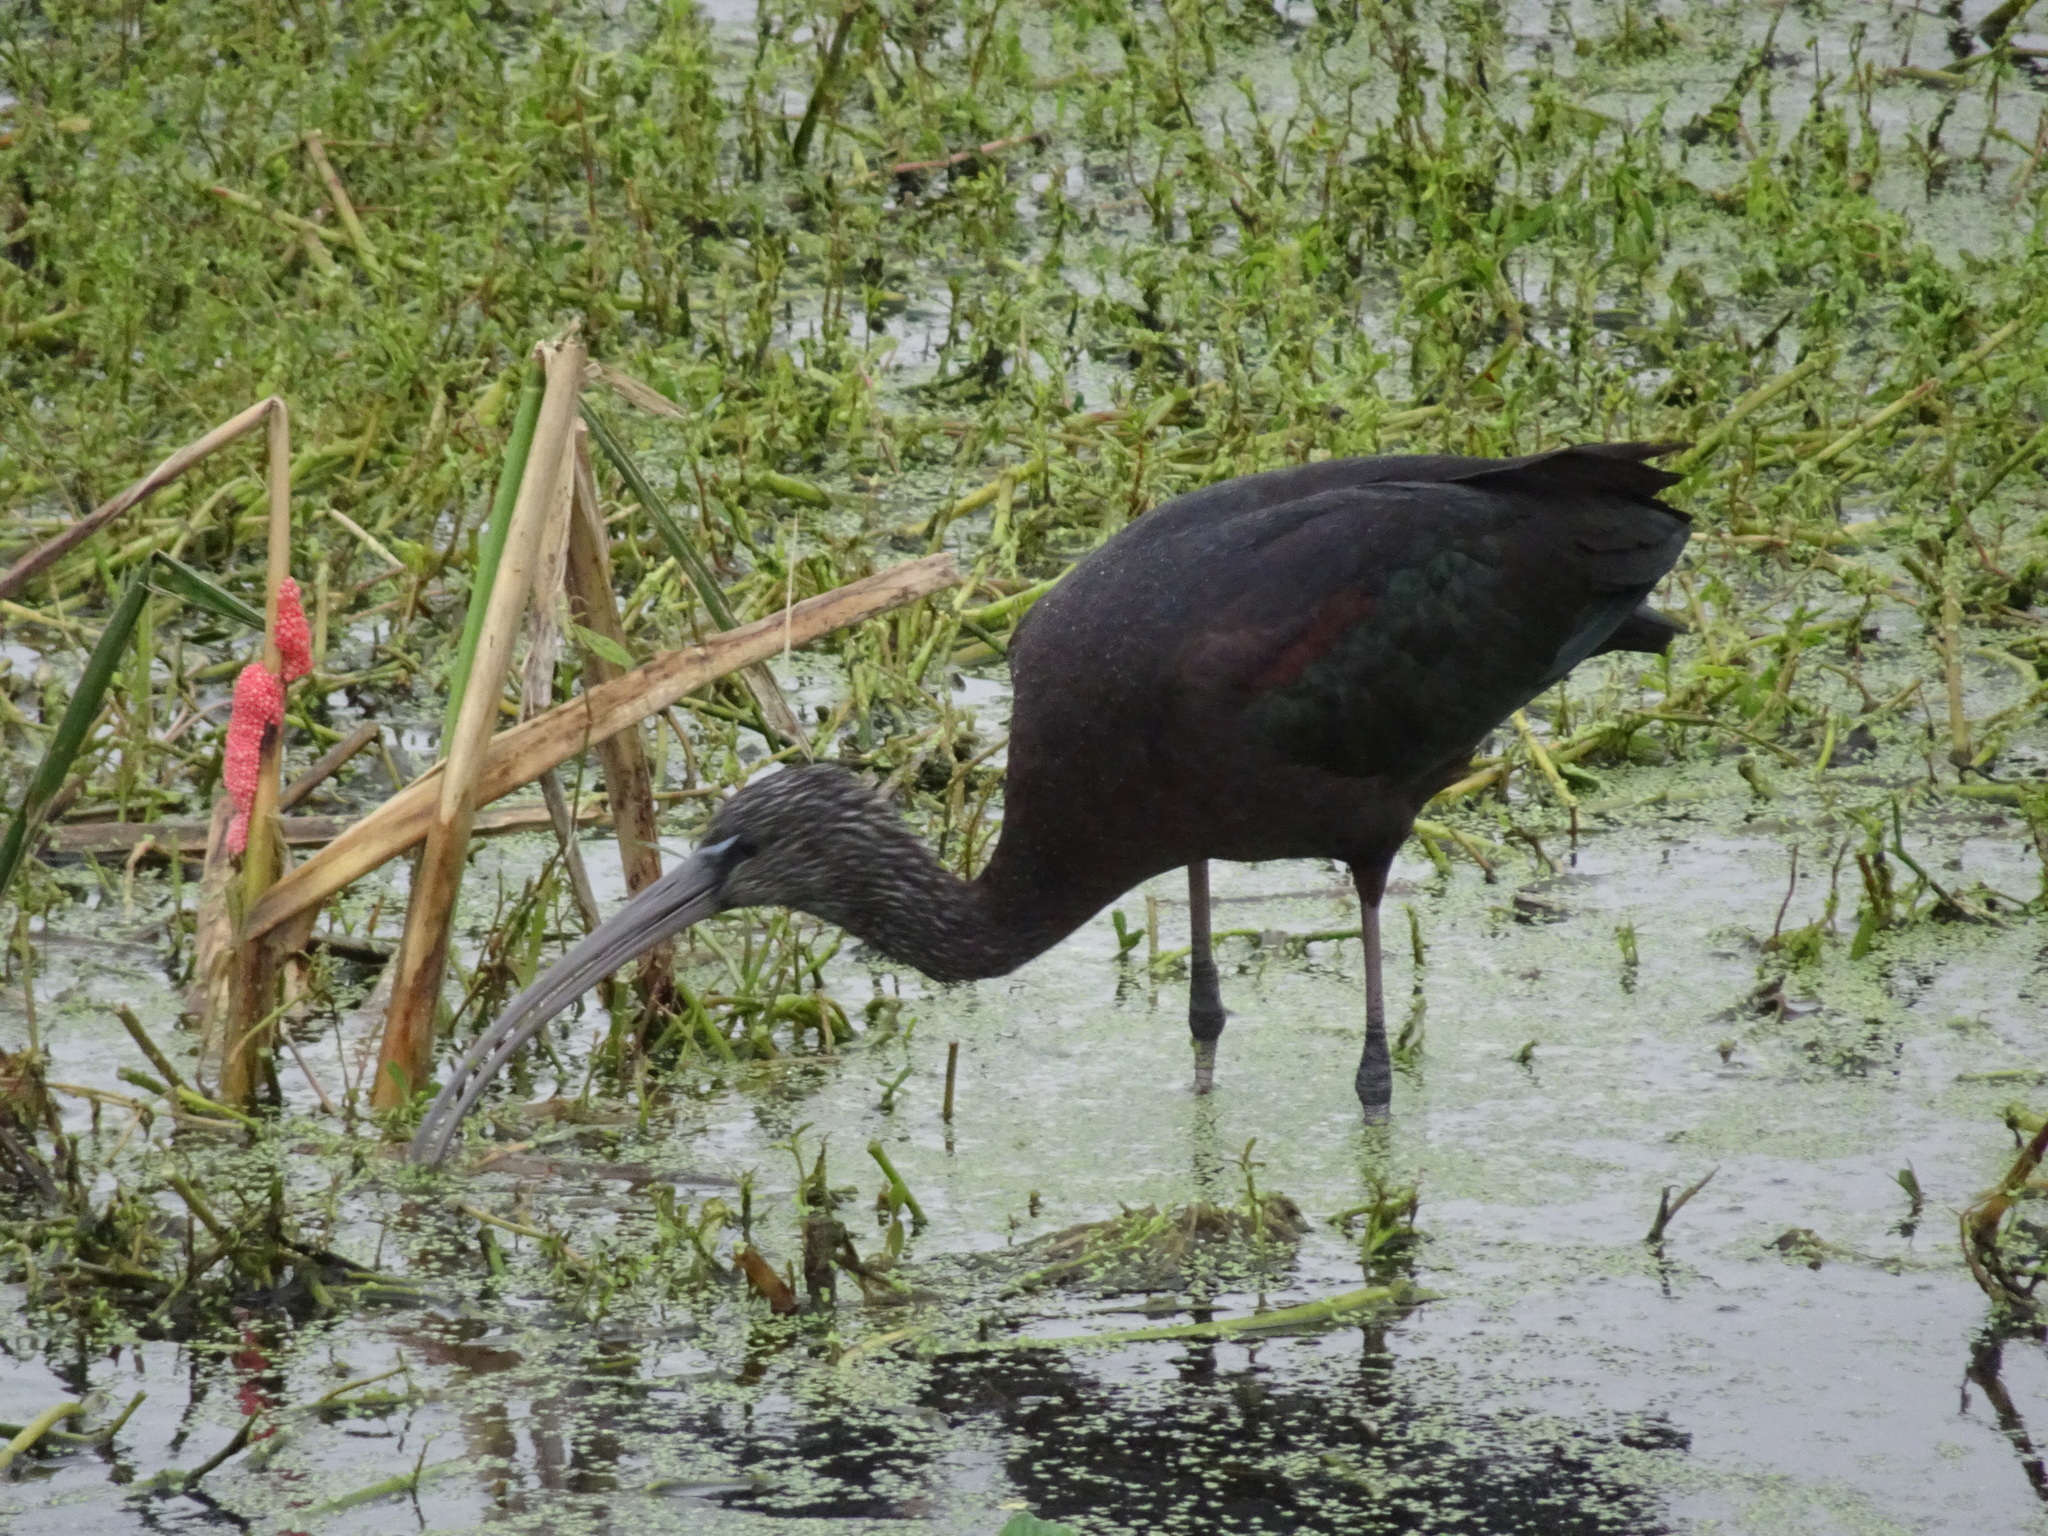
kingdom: Animalia
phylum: Chordata
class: Aves
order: Pelecaniformes
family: Threskiornithidae
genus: Plegadis
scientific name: Plegadis falcinellus
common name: Glossy ibis
